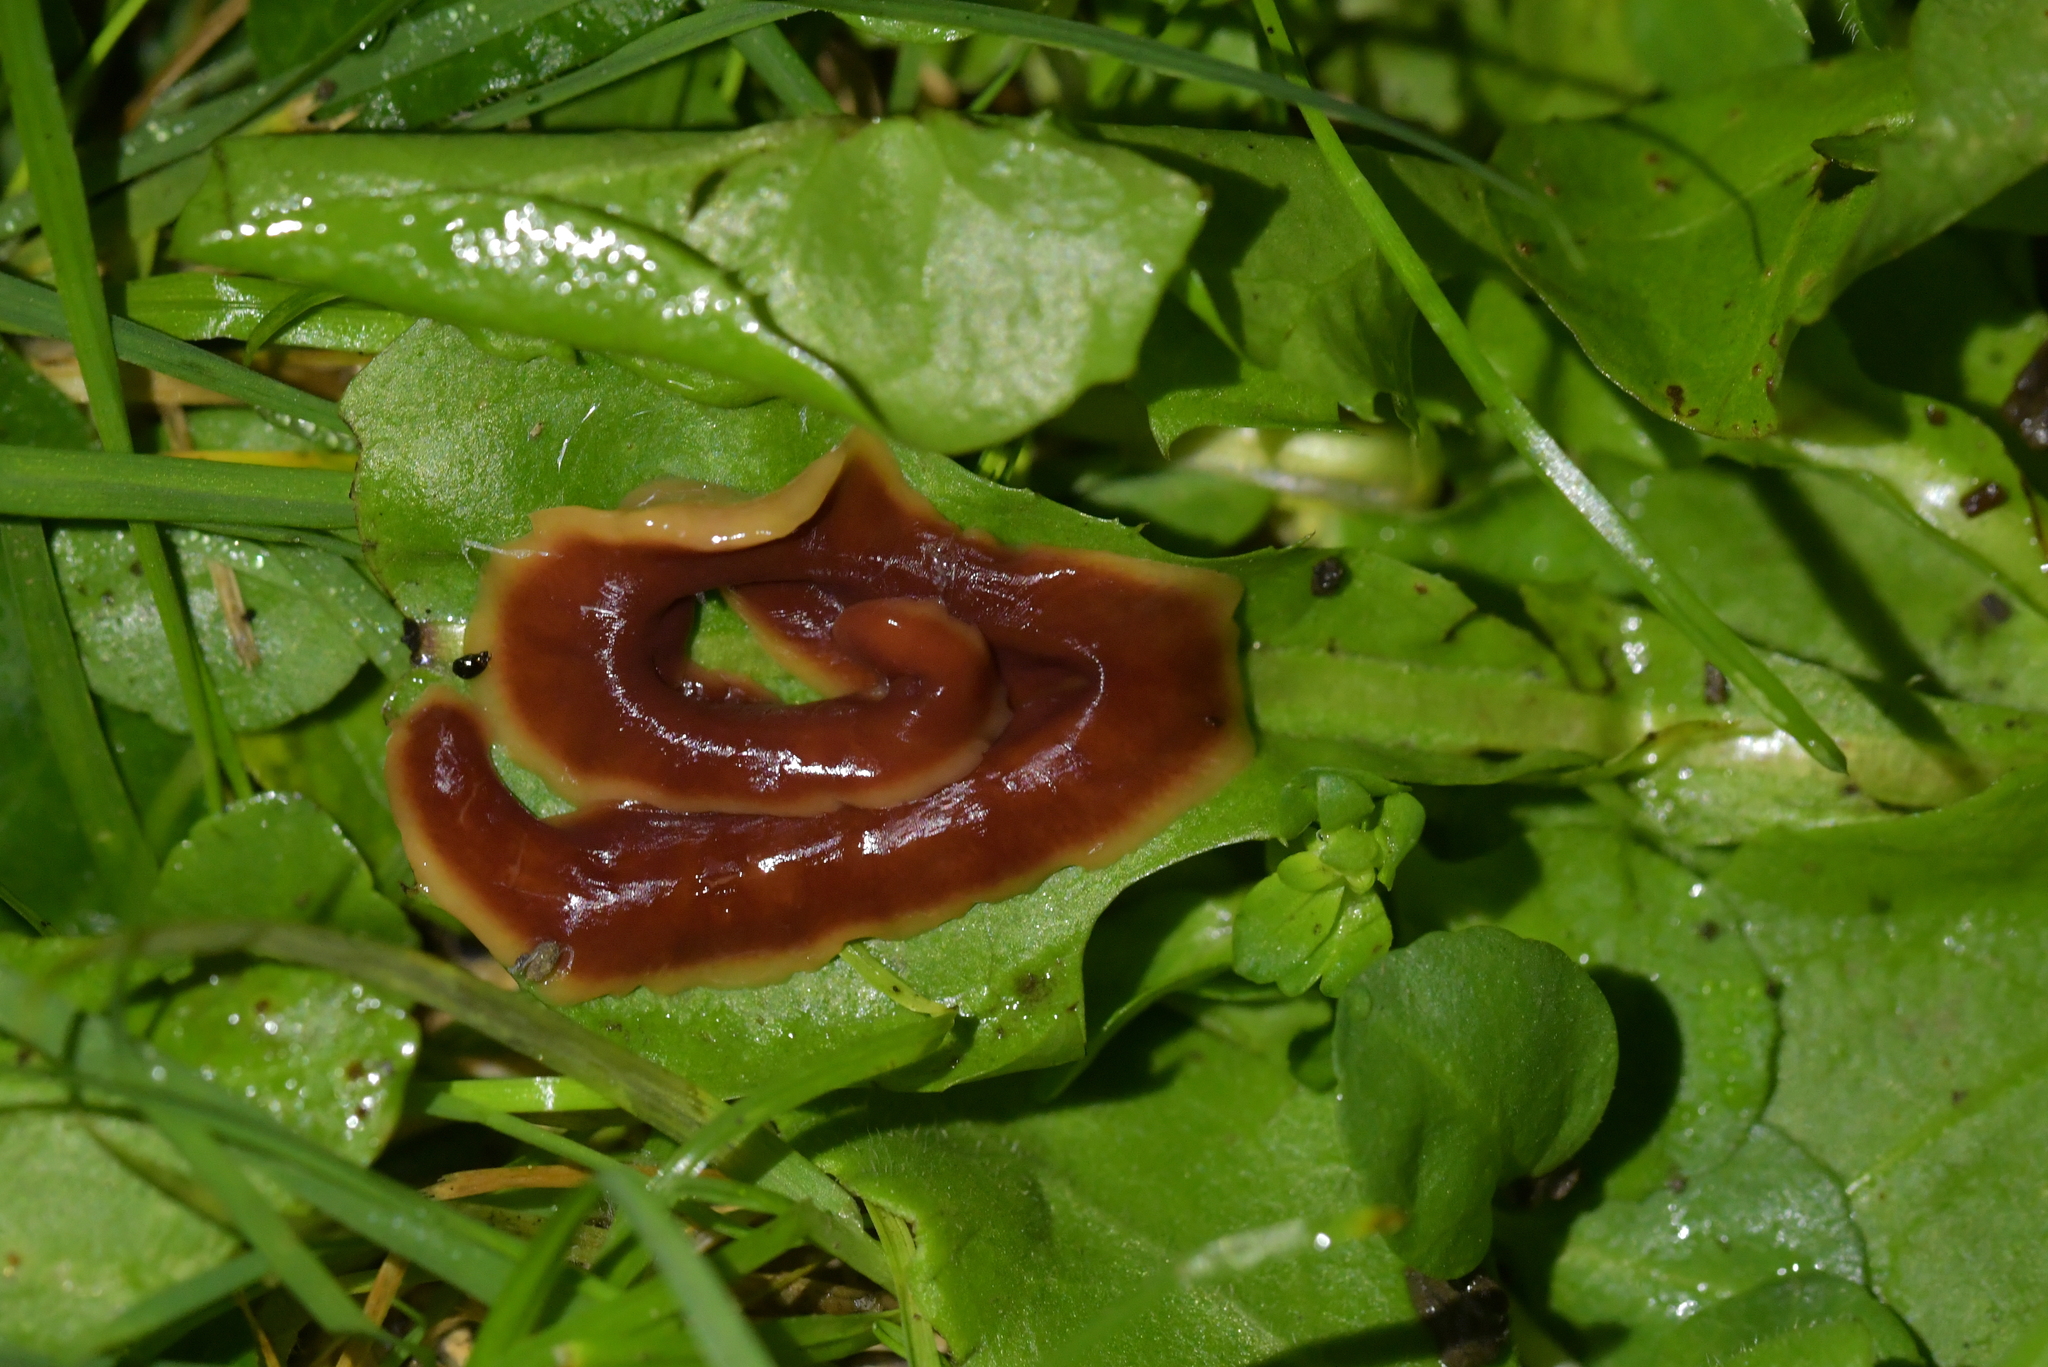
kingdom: Animalia
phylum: Platyhelminthes
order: Tricladida
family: Geoplanidae
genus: Arthurdendyus
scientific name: Arthurdendyus testaceus
